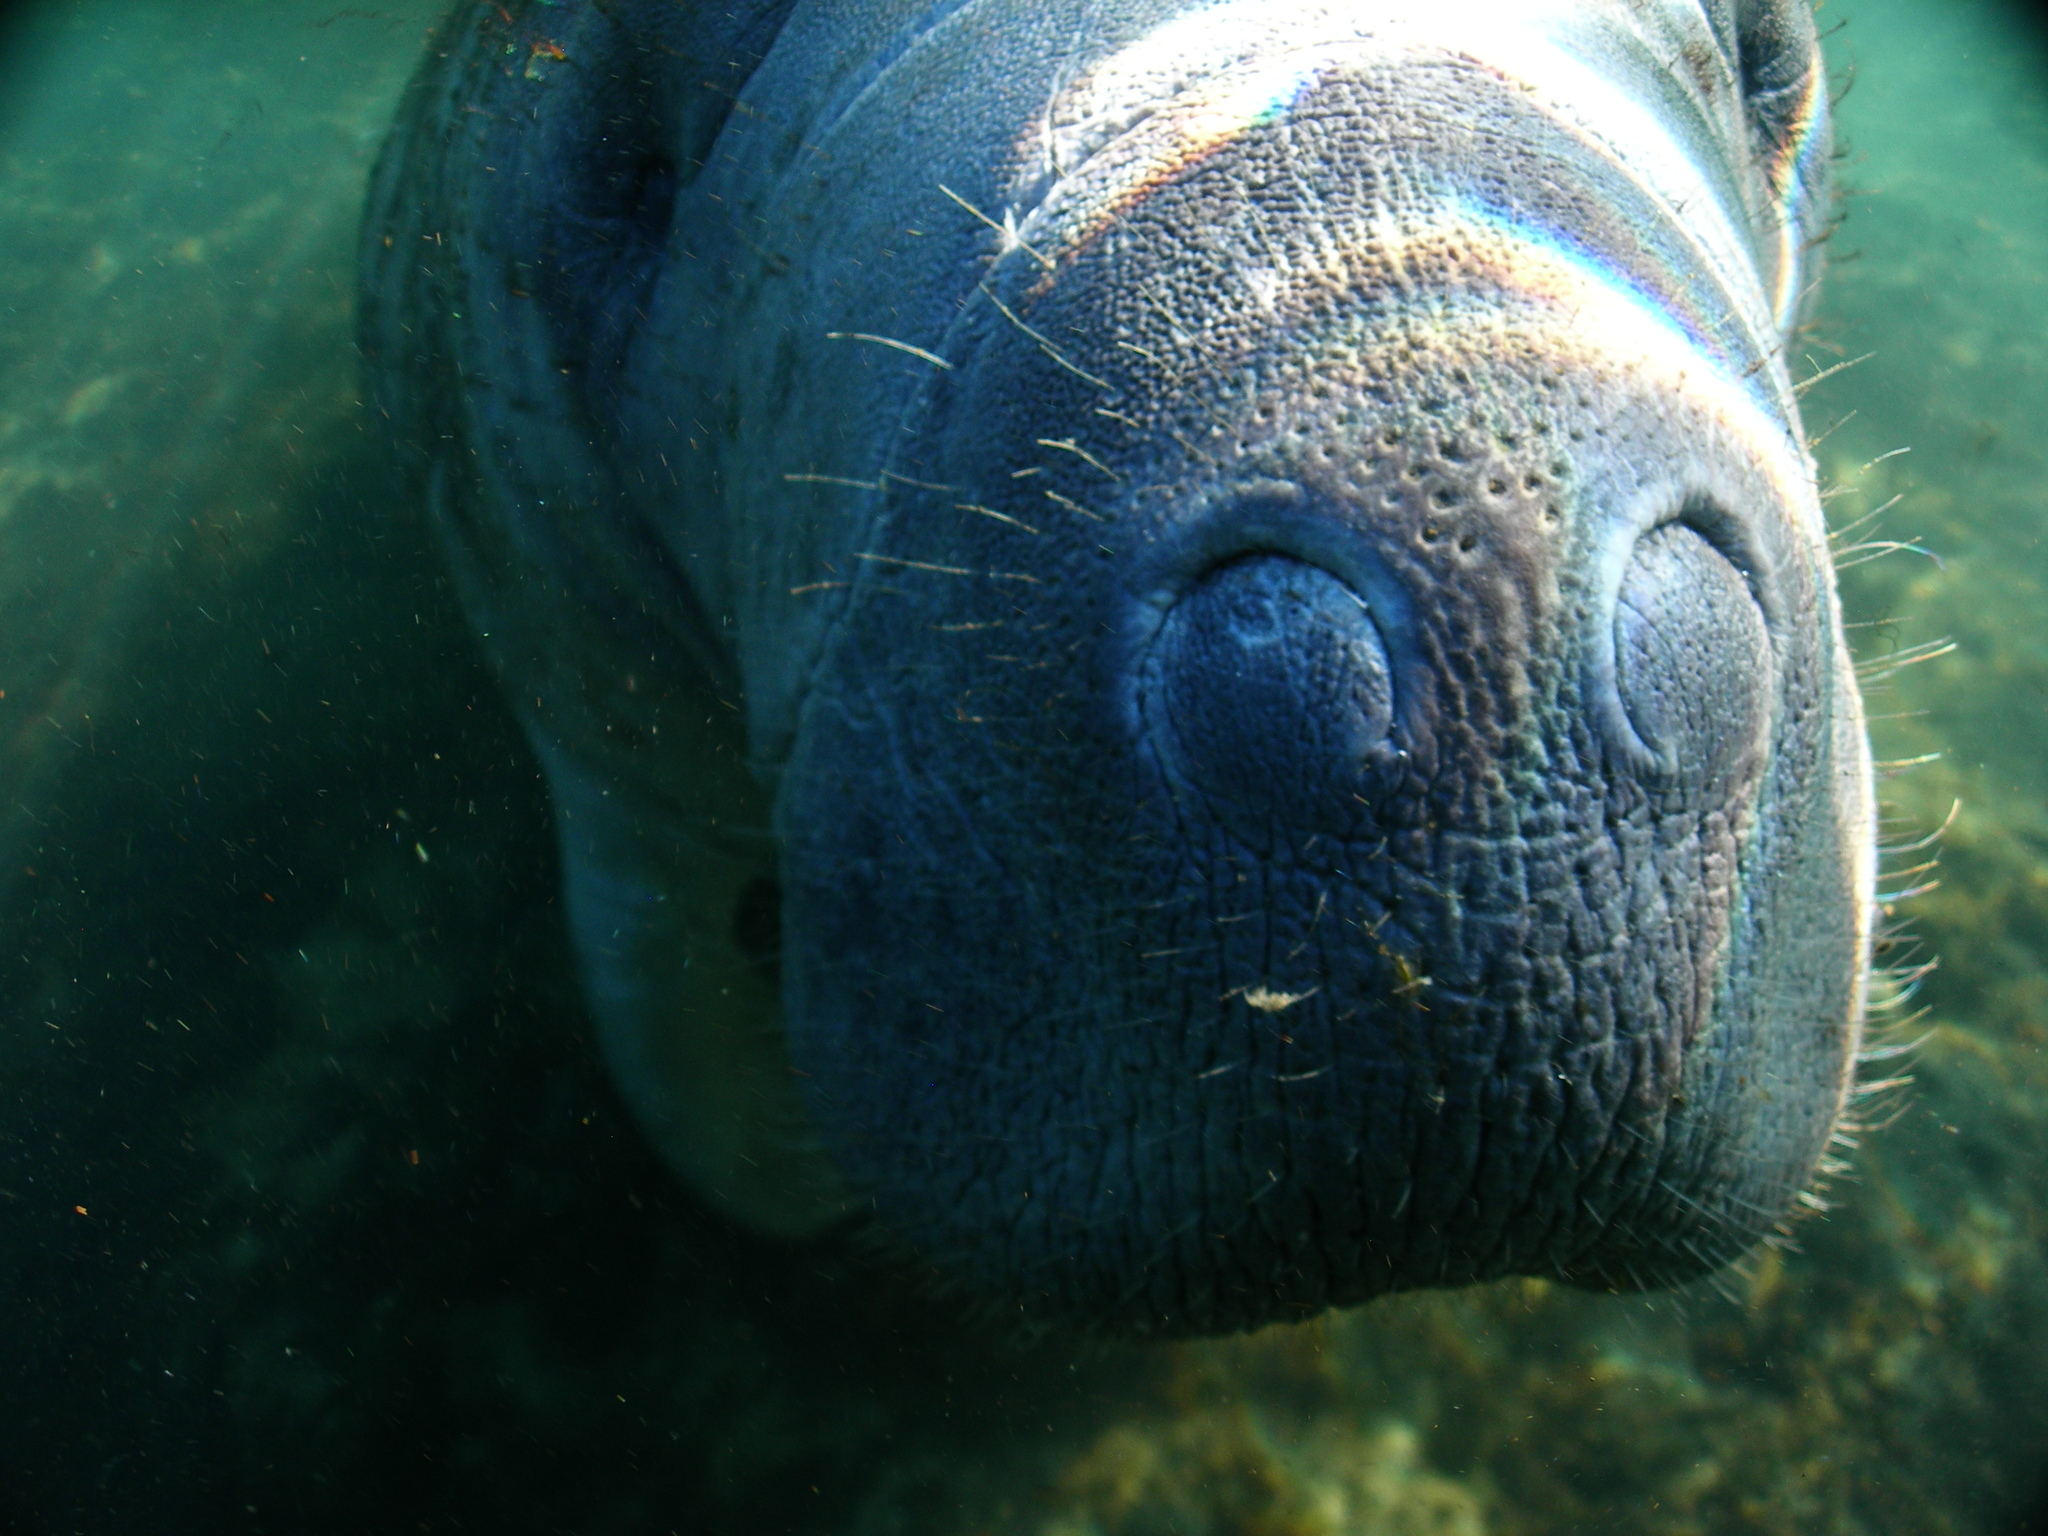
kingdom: Animalia
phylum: Chordata
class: Mammalia
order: Sirenia
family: Trichechidae
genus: Trichechus
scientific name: Trichechus manatus
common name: West indian manatee
